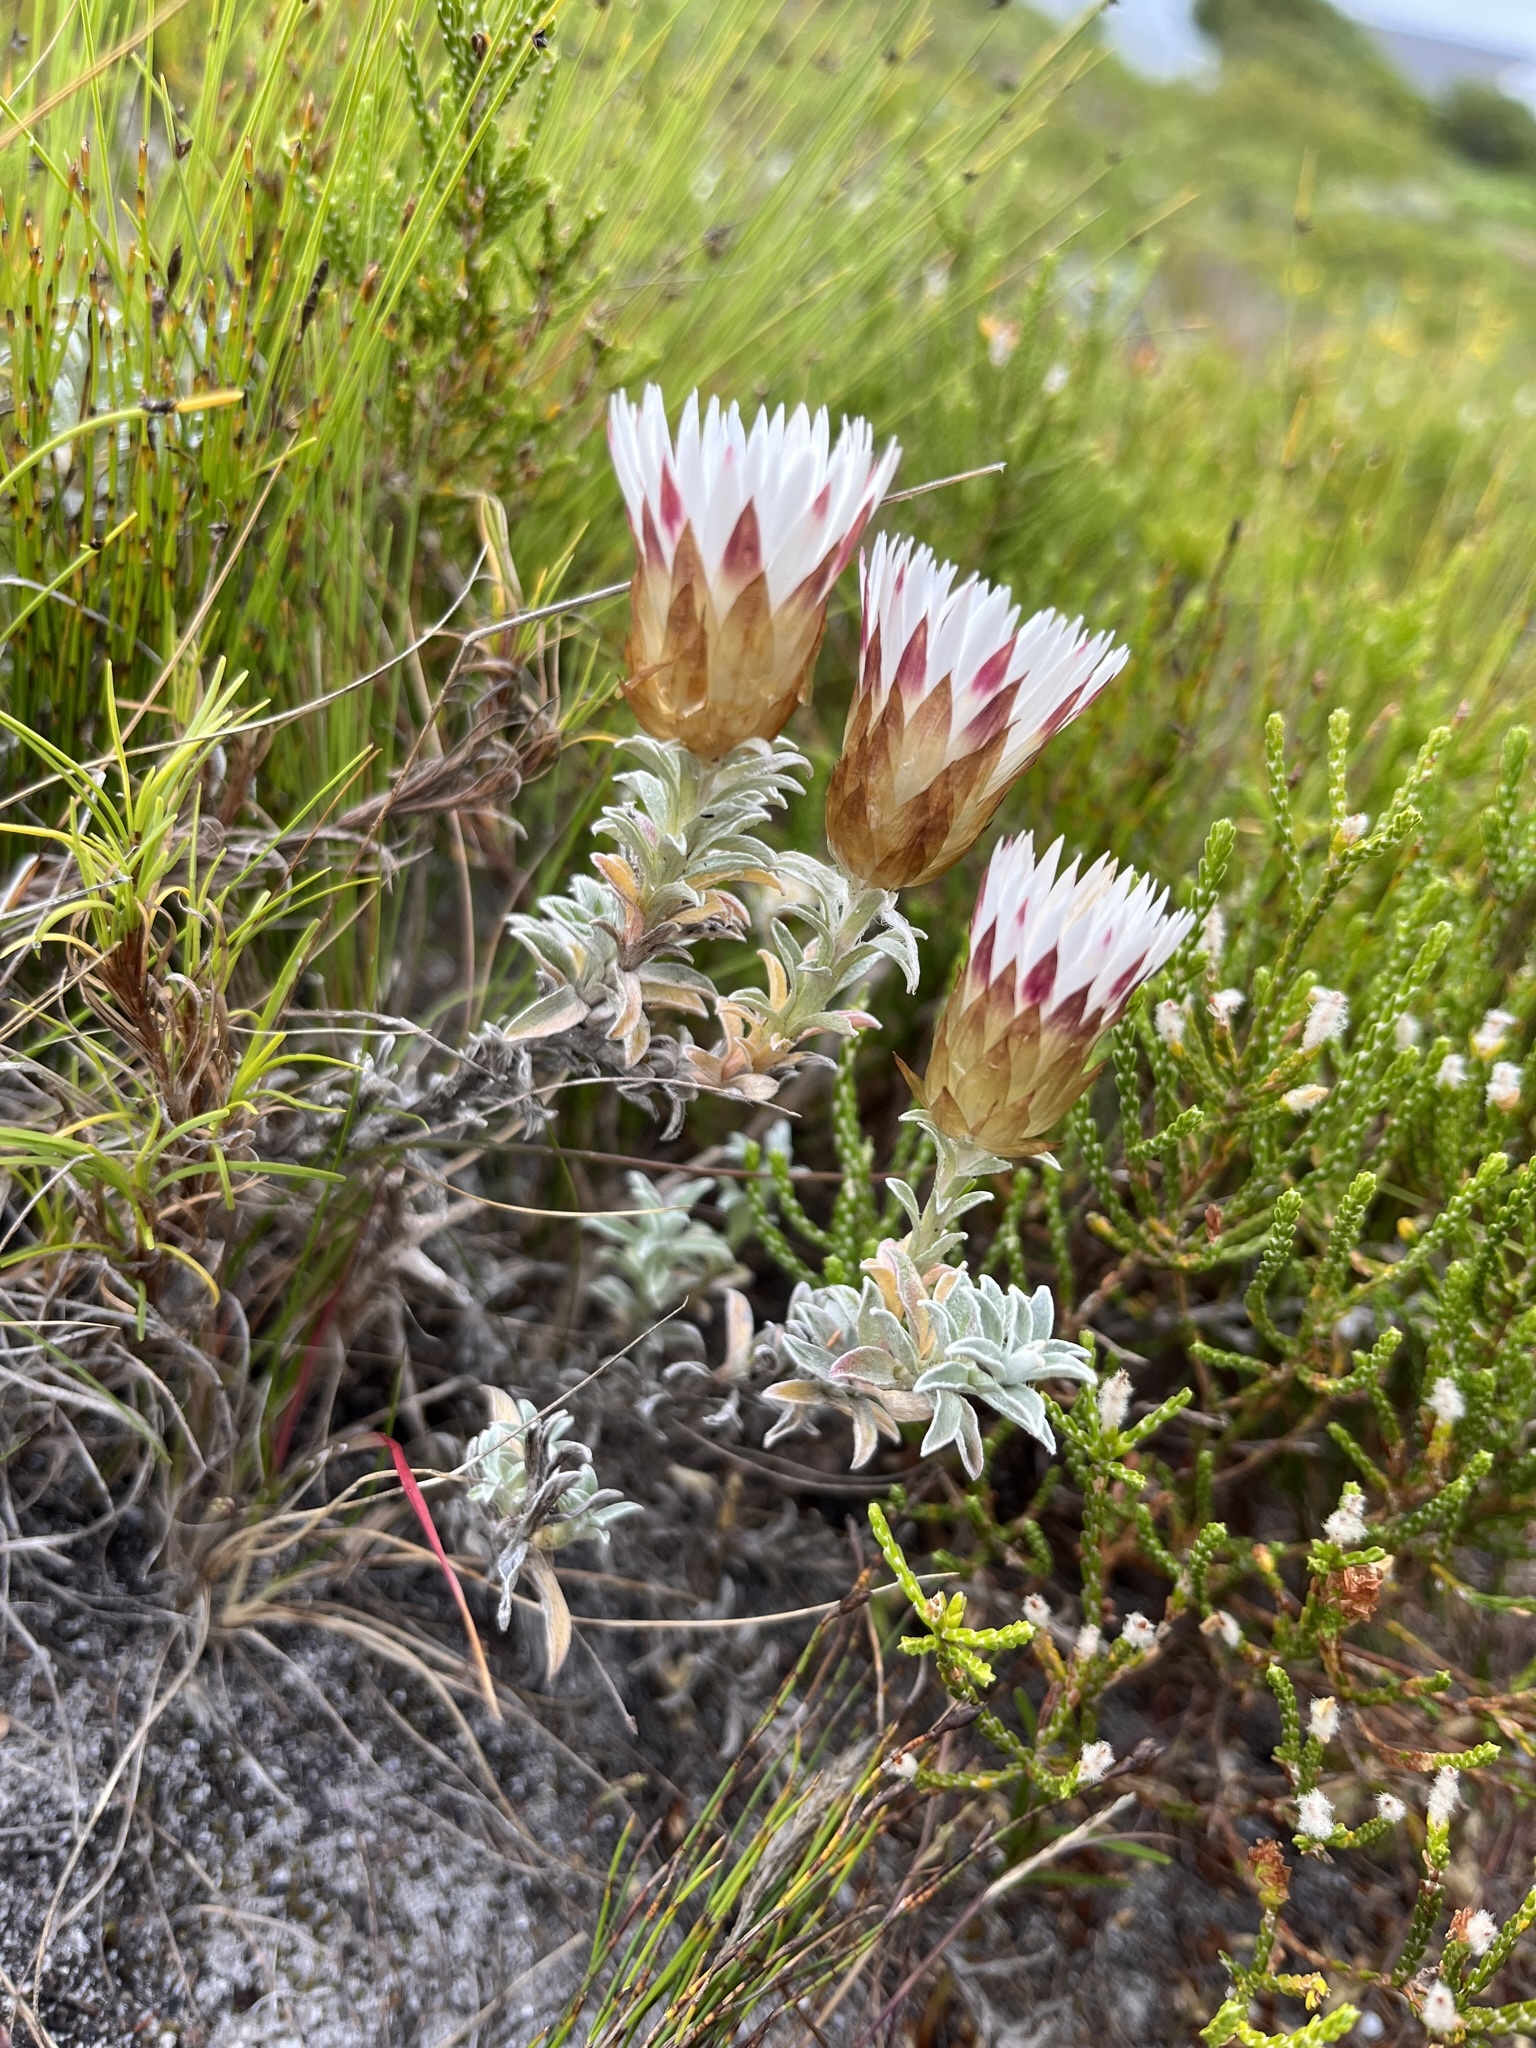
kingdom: Plantae
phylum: Tracheophyta
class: Magnoliopsida
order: Asterales
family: Asteraceae
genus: Helichrysum
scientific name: Helichrysum retortum
